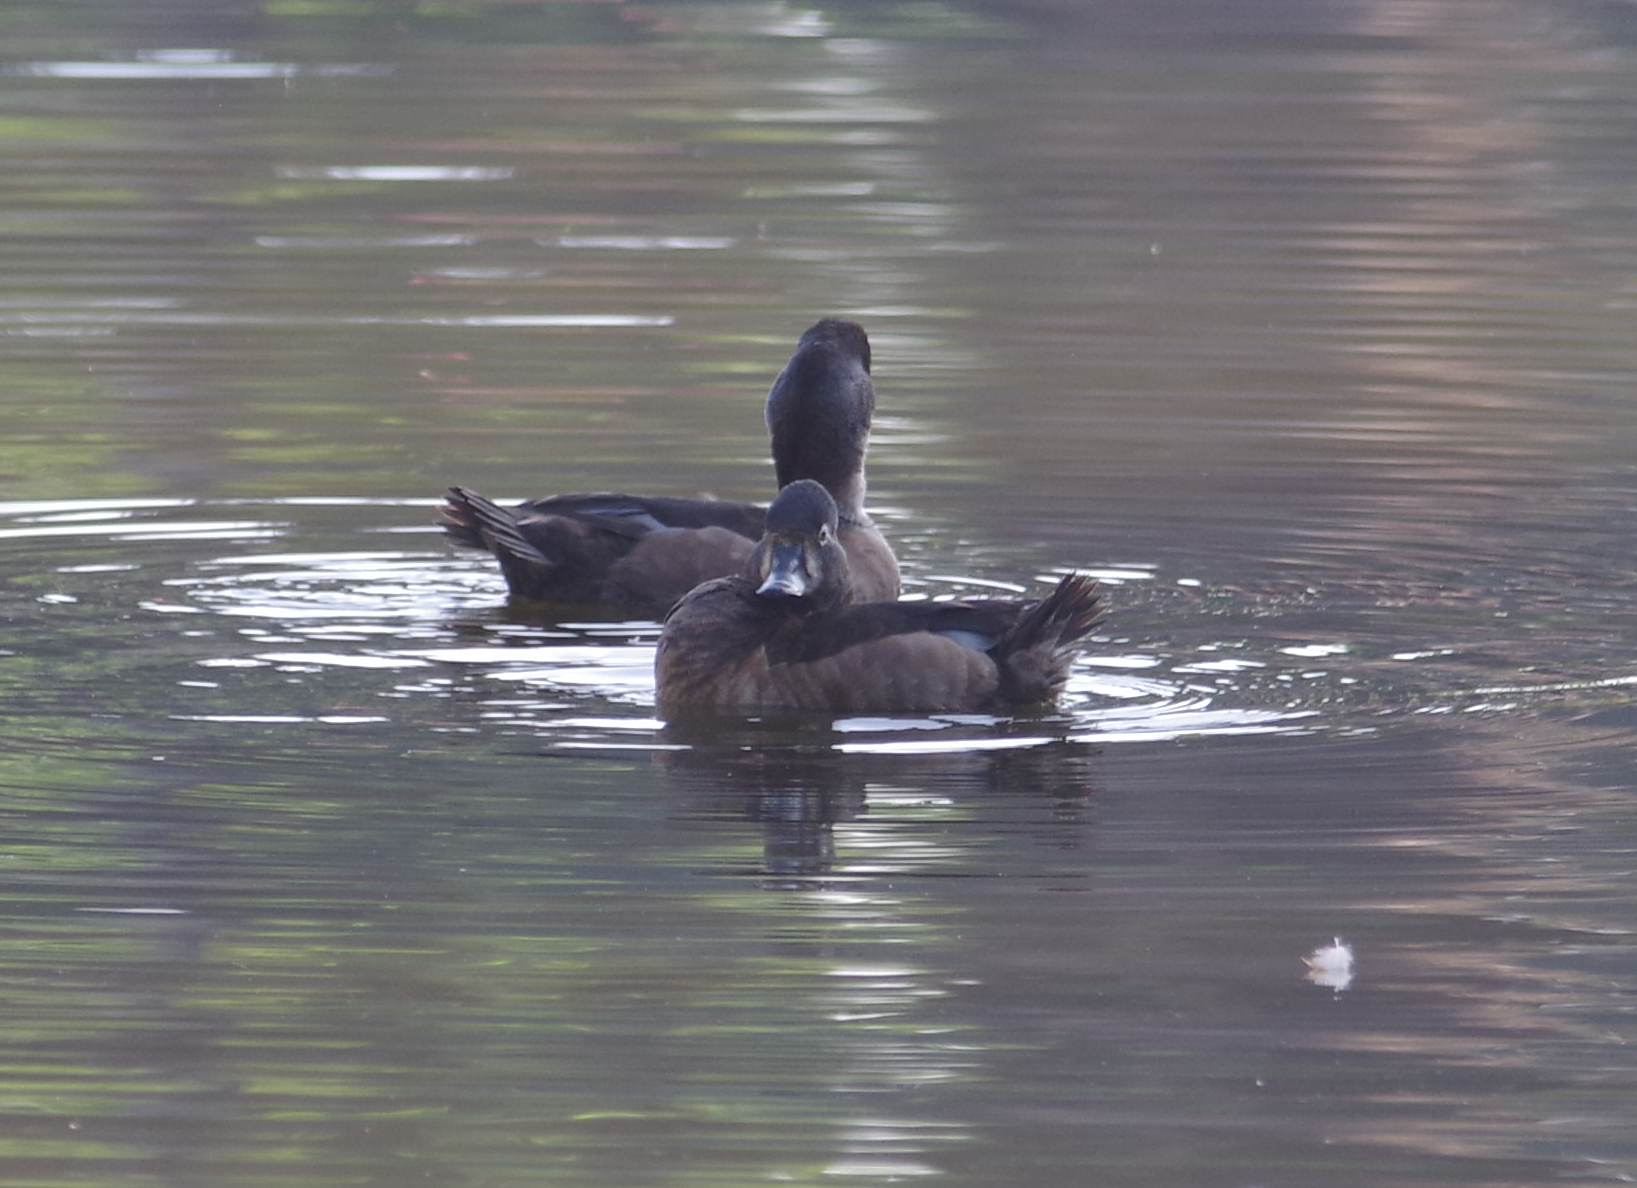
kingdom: Animalia
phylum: Chordata
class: Aves
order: Anseriformes
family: Anatidae
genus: Aythya
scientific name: Aythya collaris
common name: Ring-necked duck
